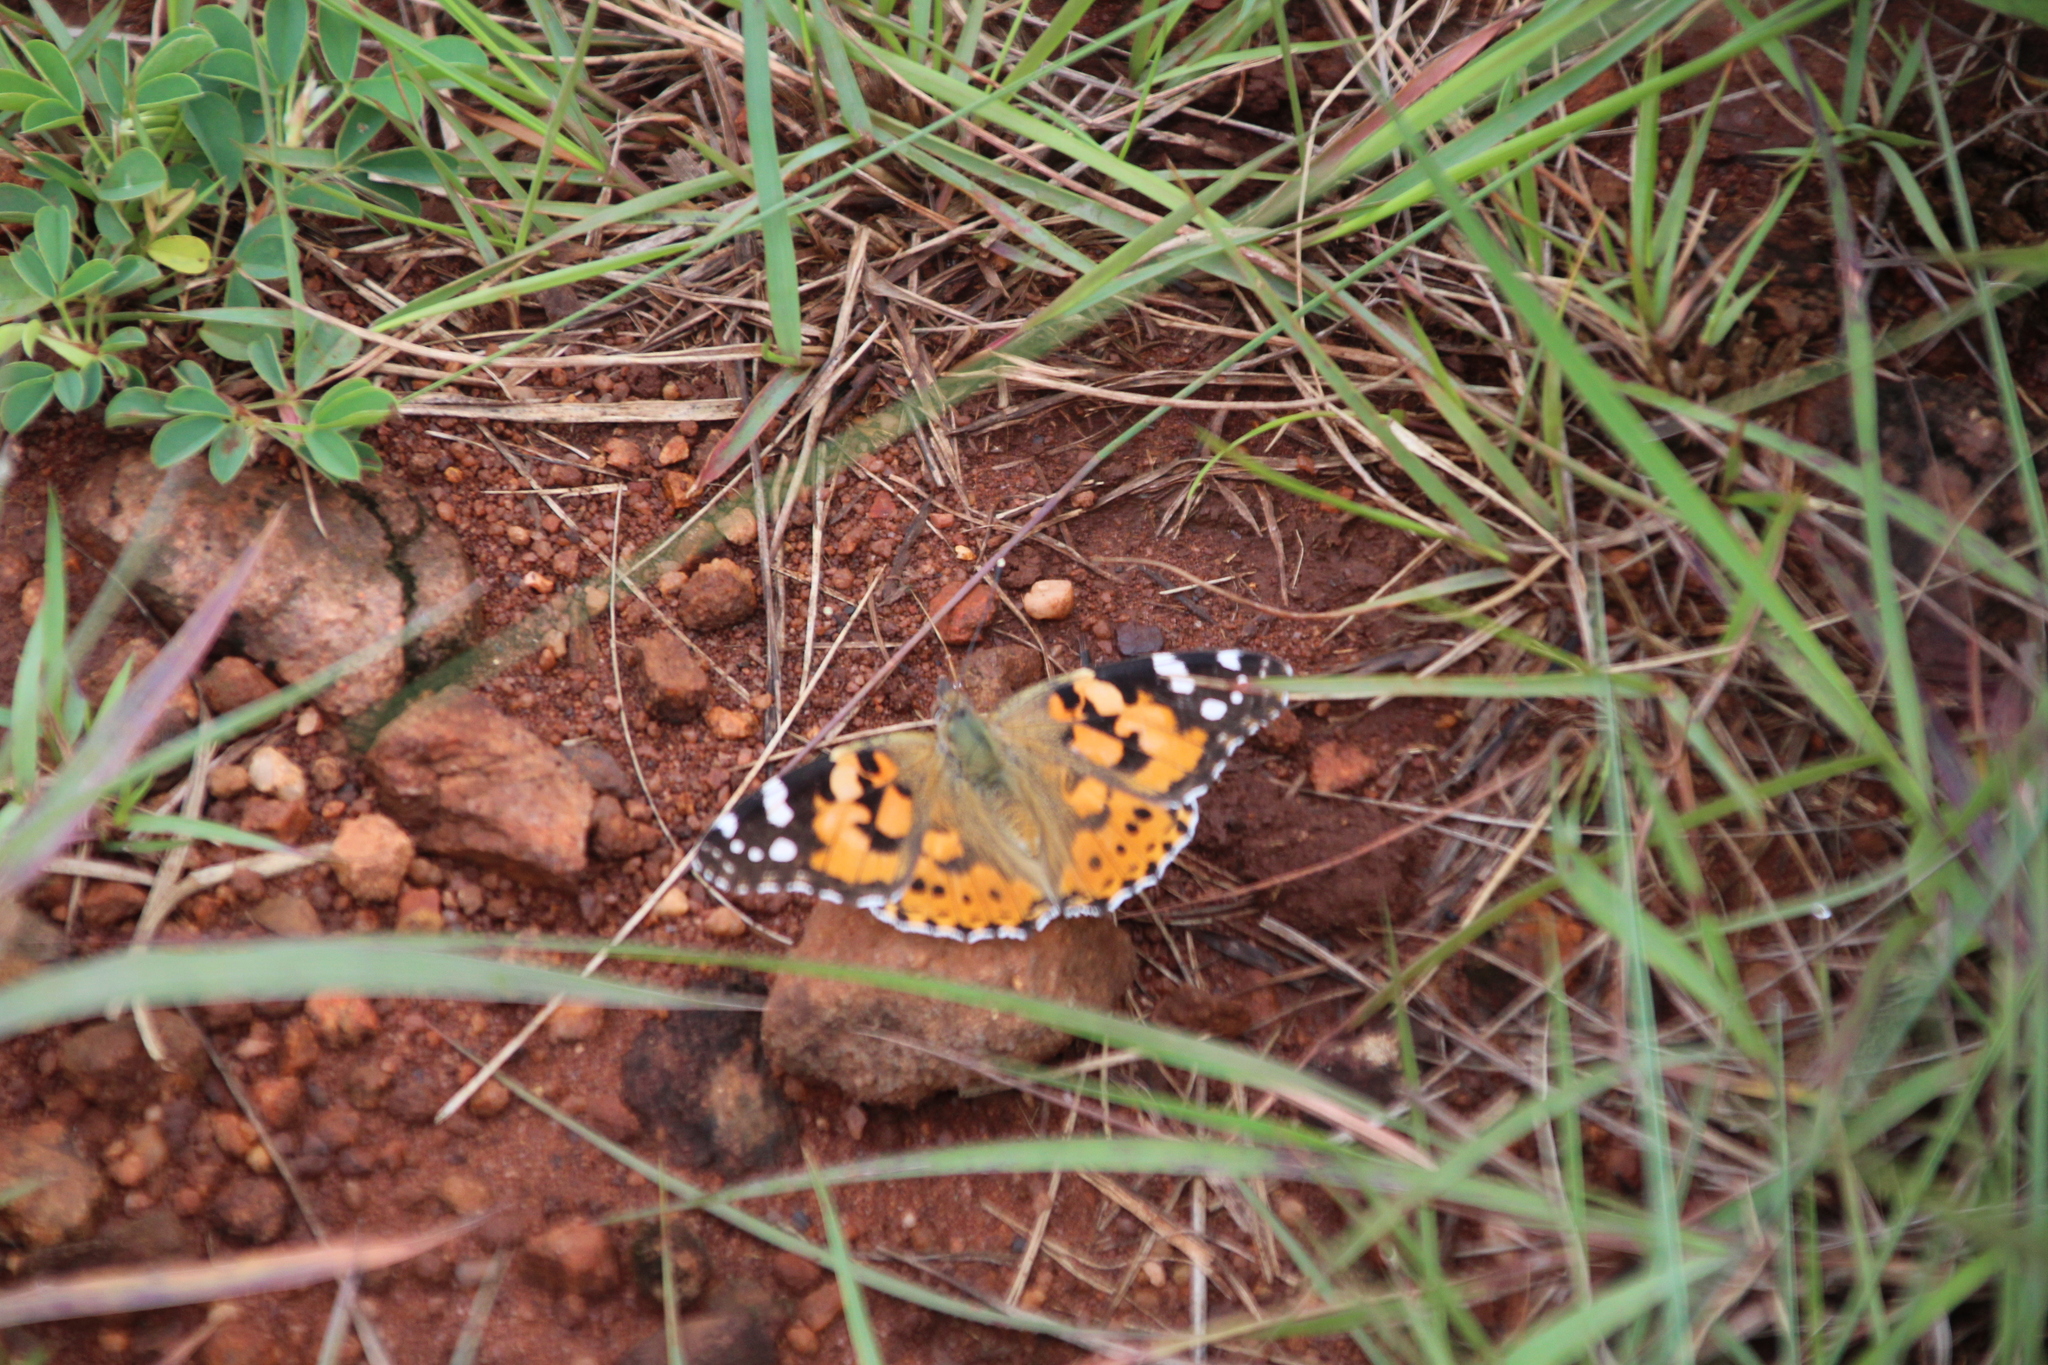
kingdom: Animalia
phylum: Arthropoda
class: Insecta
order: Lepidoptera
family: Nymphalidae
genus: Vanessa
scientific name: Vanessa cardui
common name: Painted lady
